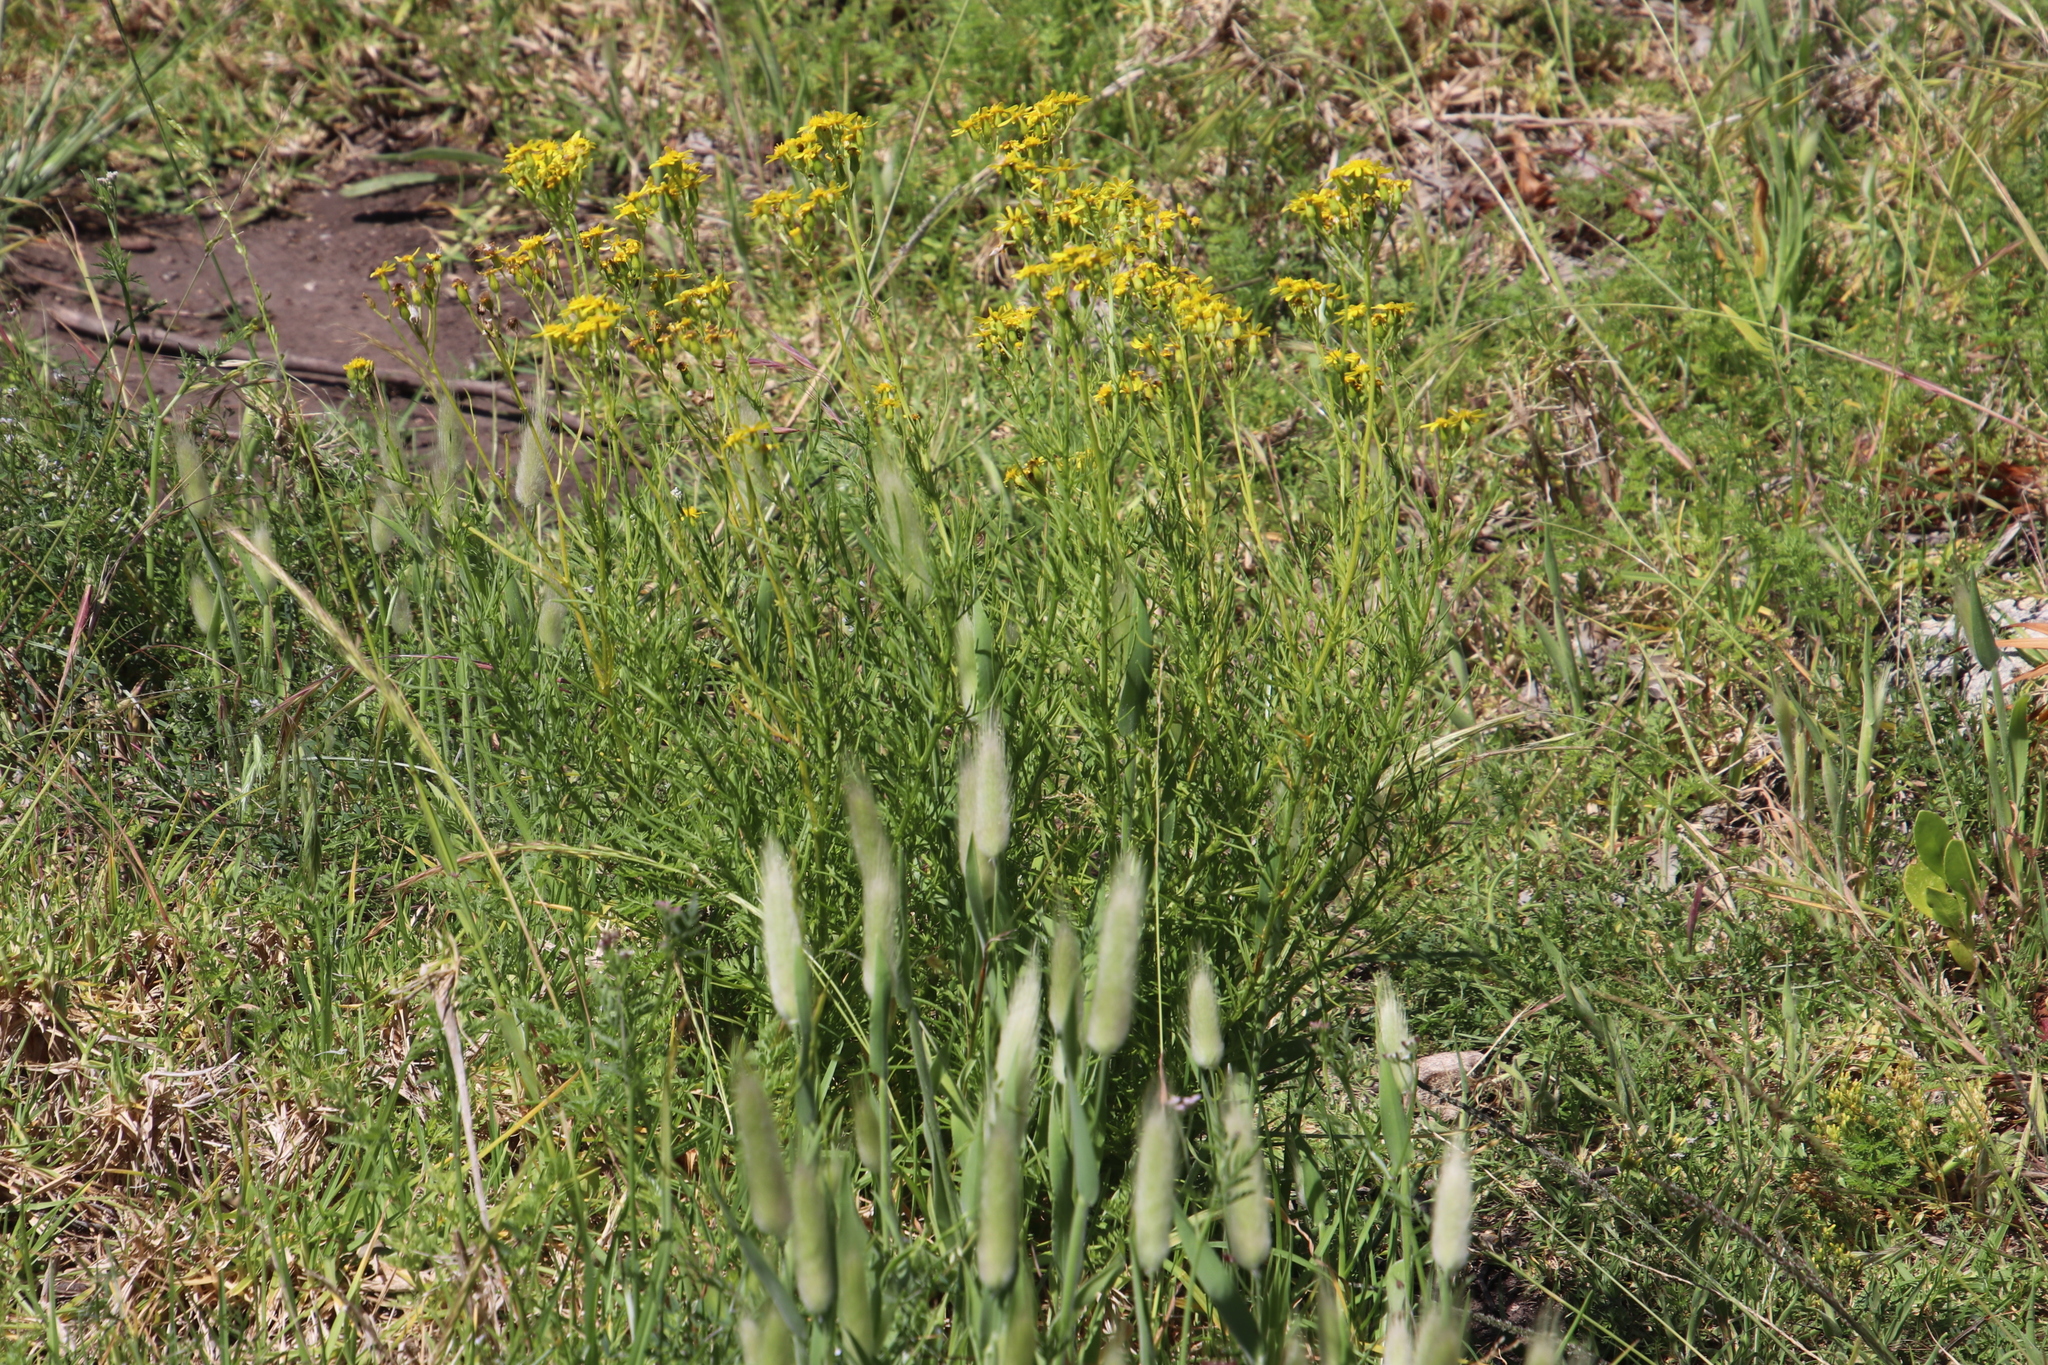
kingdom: Plantae
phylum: Tracheophyta
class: Liliopsida
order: Poales
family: Poaceae
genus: Lagurus
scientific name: Lagurus ovatus
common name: Hare's-tail
